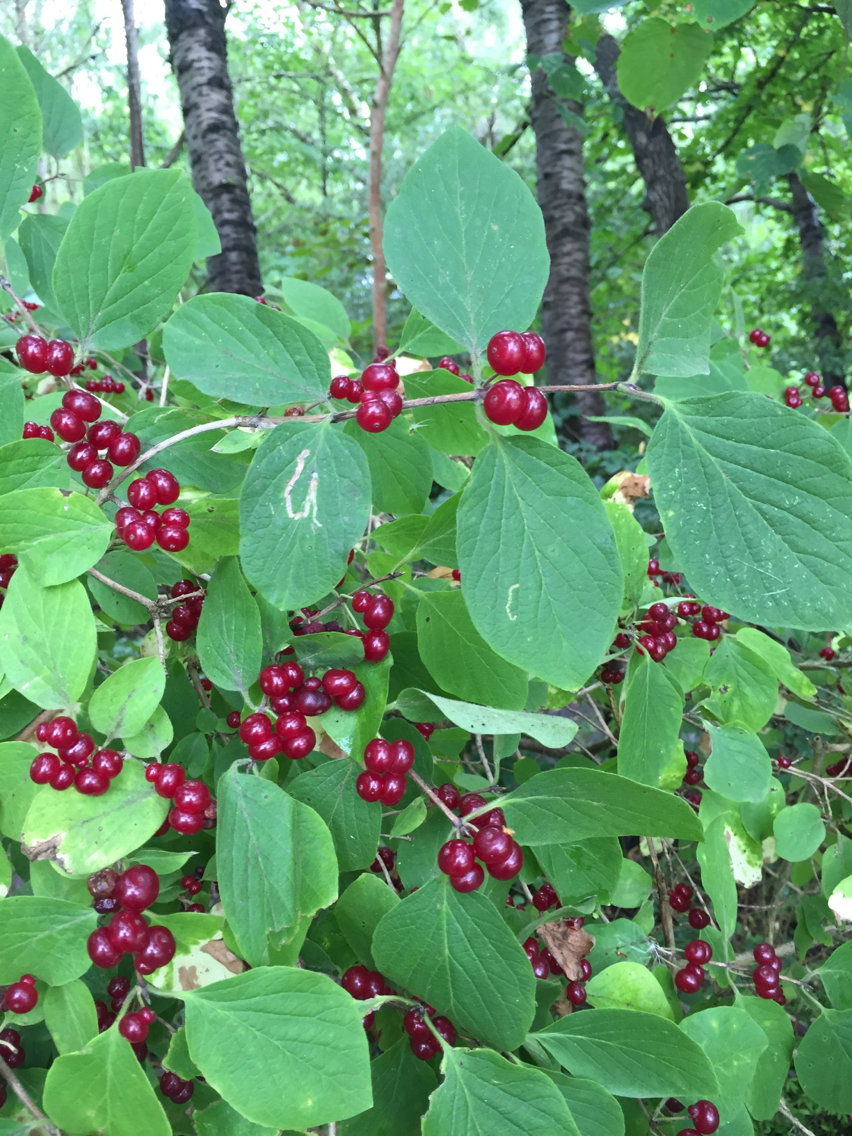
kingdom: Plantae
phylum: Tracheophyta
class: Magnoliopsida
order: Dipsacales
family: Caprifoliaceae
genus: Lonicera
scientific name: Lonicera xylosteum
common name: Fly honeysuckle
